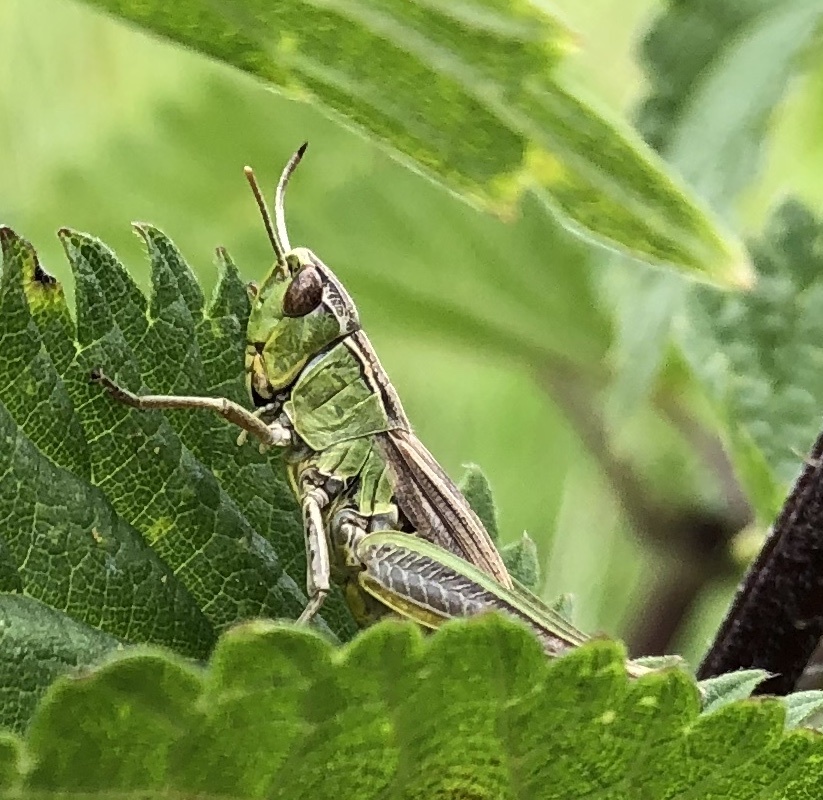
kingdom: Animalia
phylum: Arthropoda
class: Insecta
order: Orthoptera
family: Acrididae
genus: Pseudochorthippus
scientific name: Pseudochorthippus parallelus
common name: Meadow grasshopper
